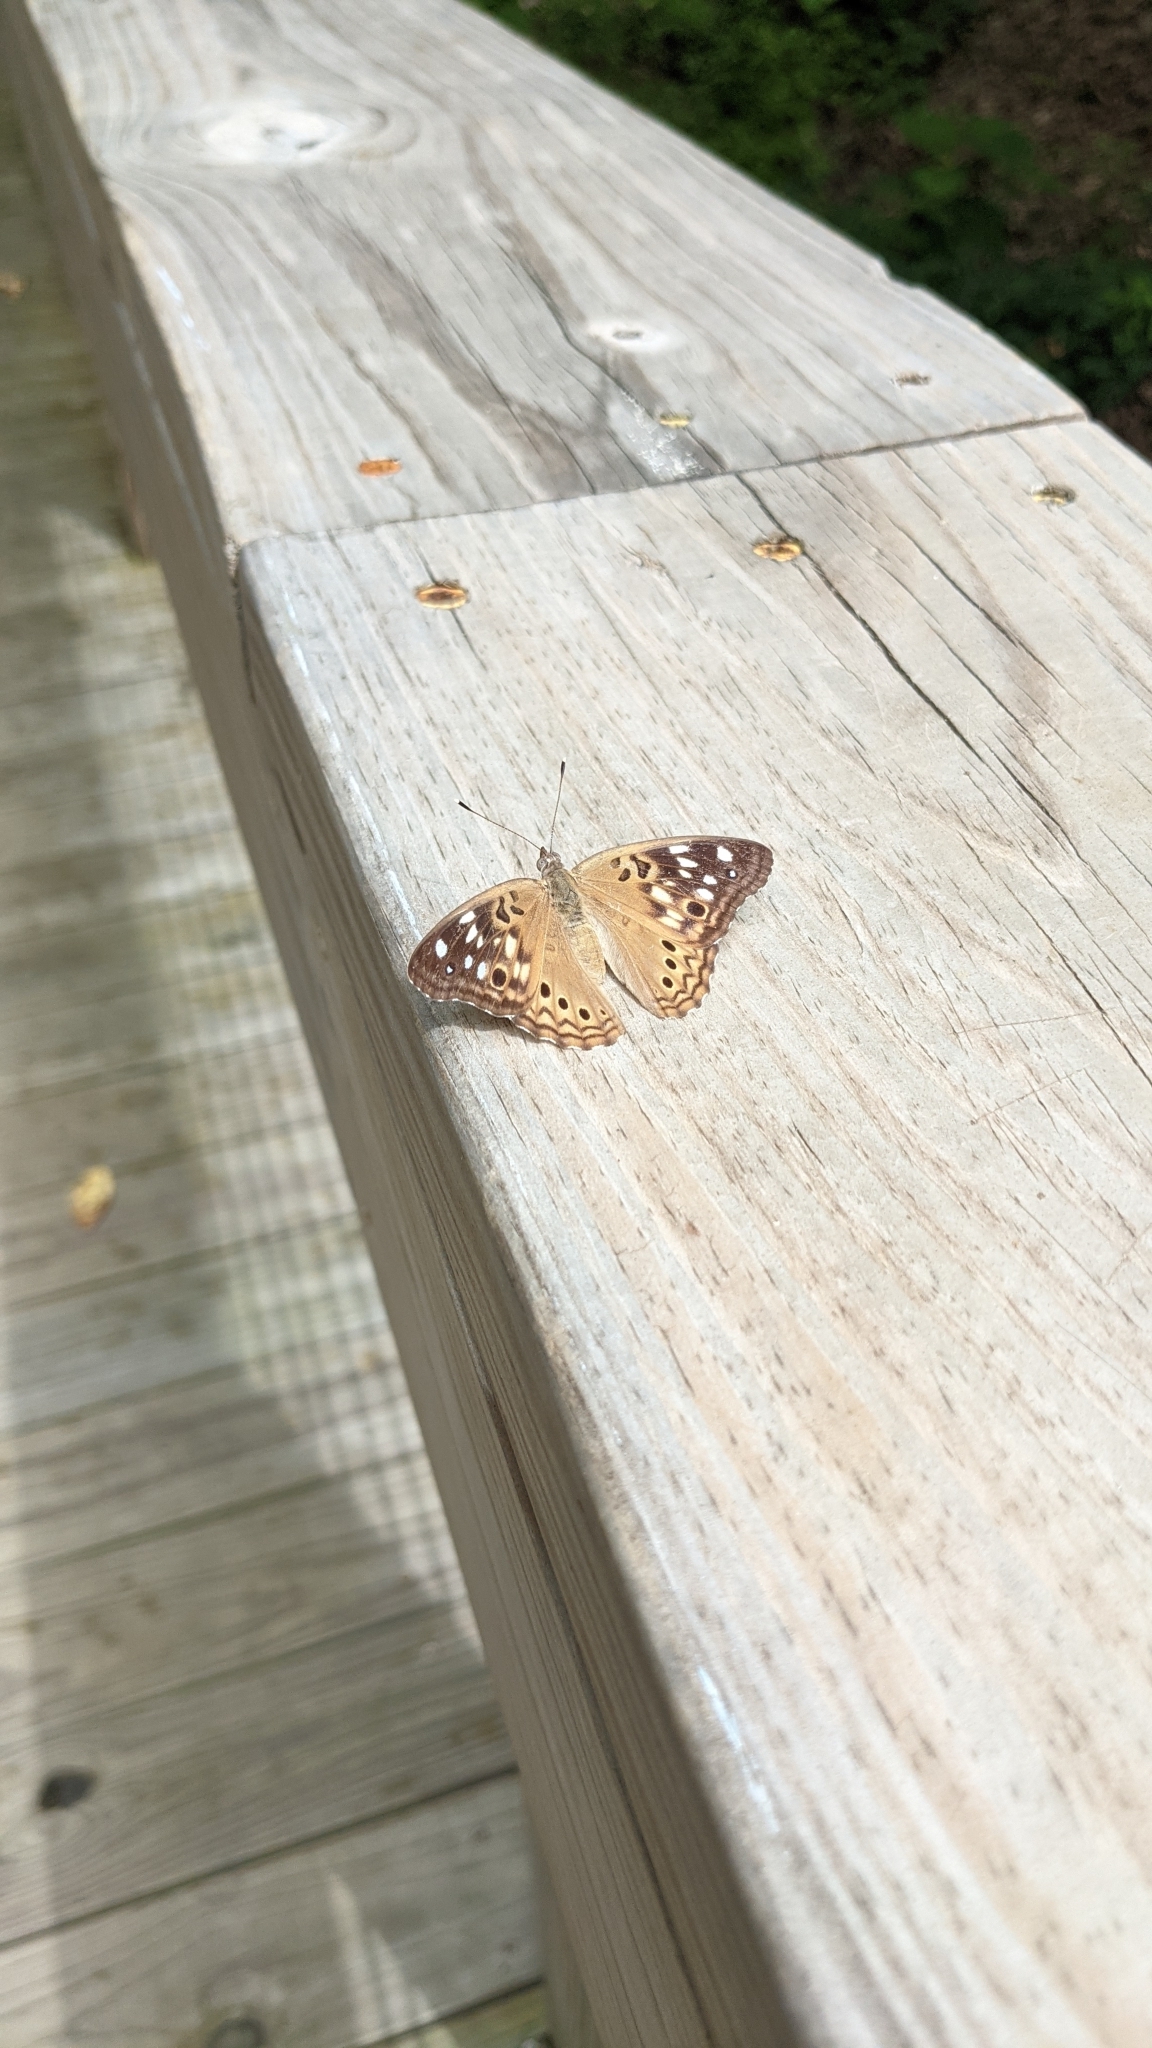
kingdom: Animalia
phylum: Arthropoda
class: Insecta
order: Lepidoptera
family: Nymphalidae
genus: Asterocampa
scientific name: Asterocampa celtis
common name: Hackberry emperor
